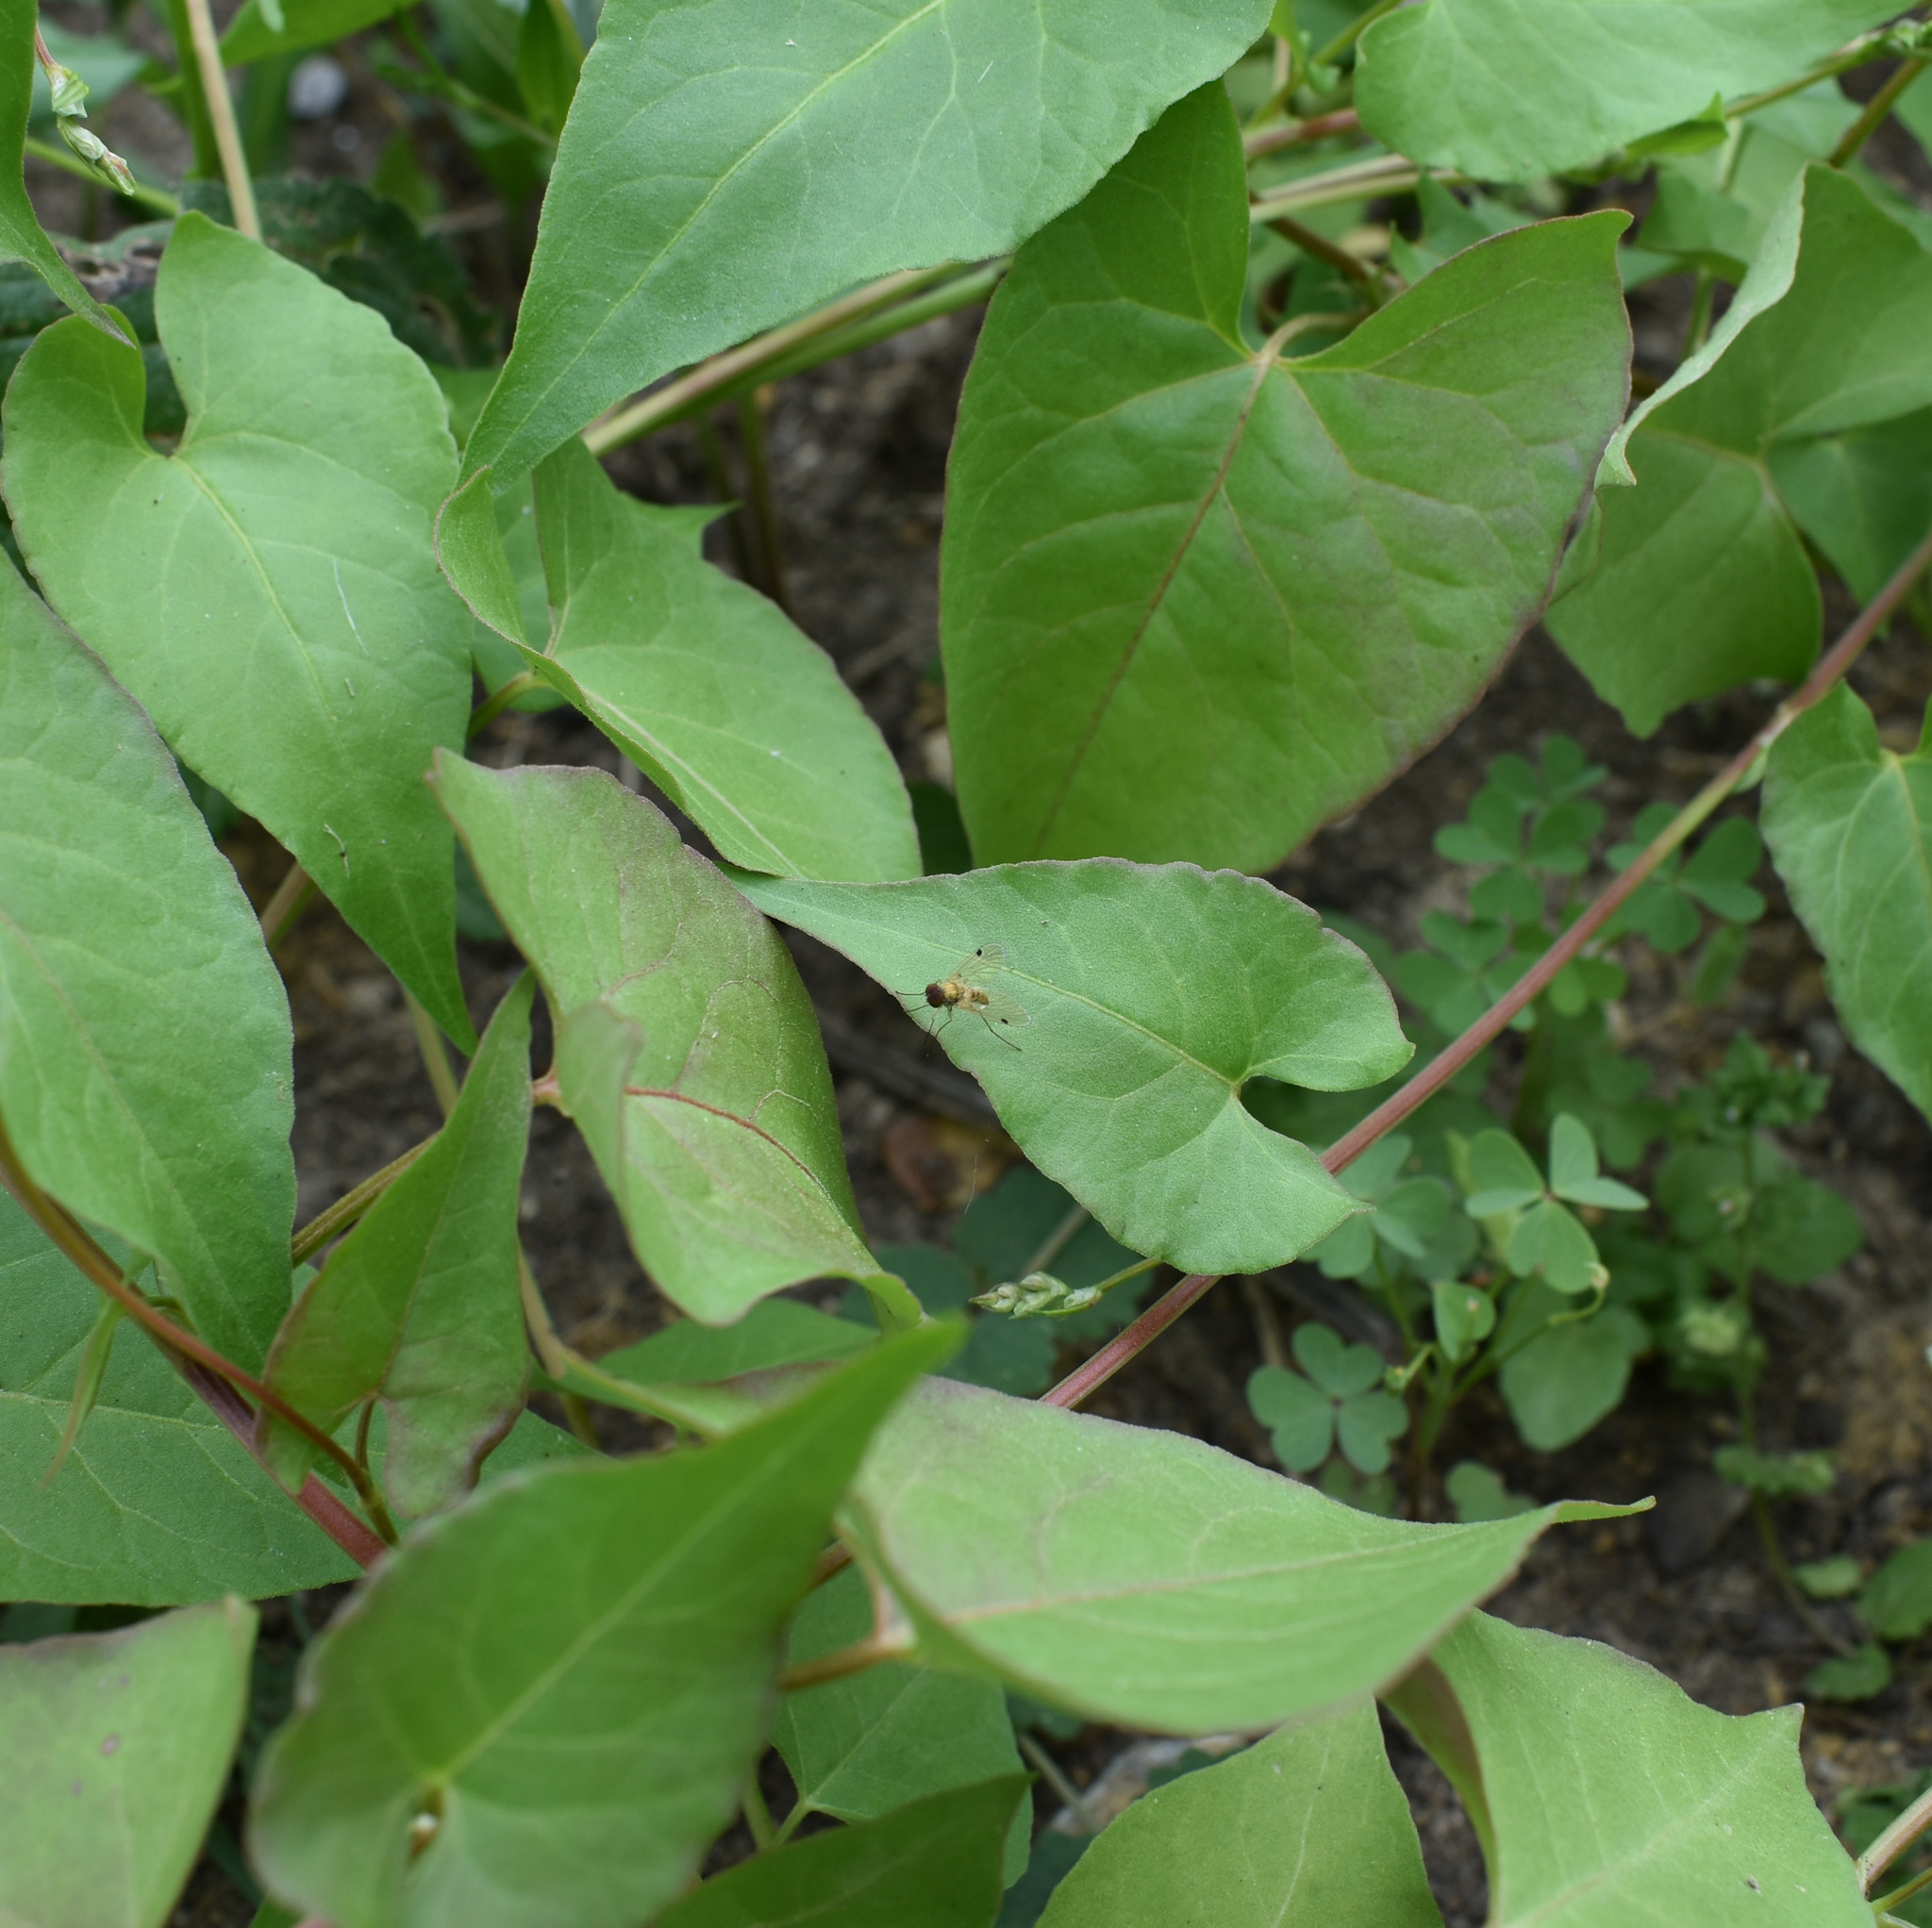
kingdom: Animalia
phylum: Arthropoda
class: Insecta
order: Diptera
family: Rhagionidae
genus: Chrysopilus
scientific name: Chrysopilus modestus
